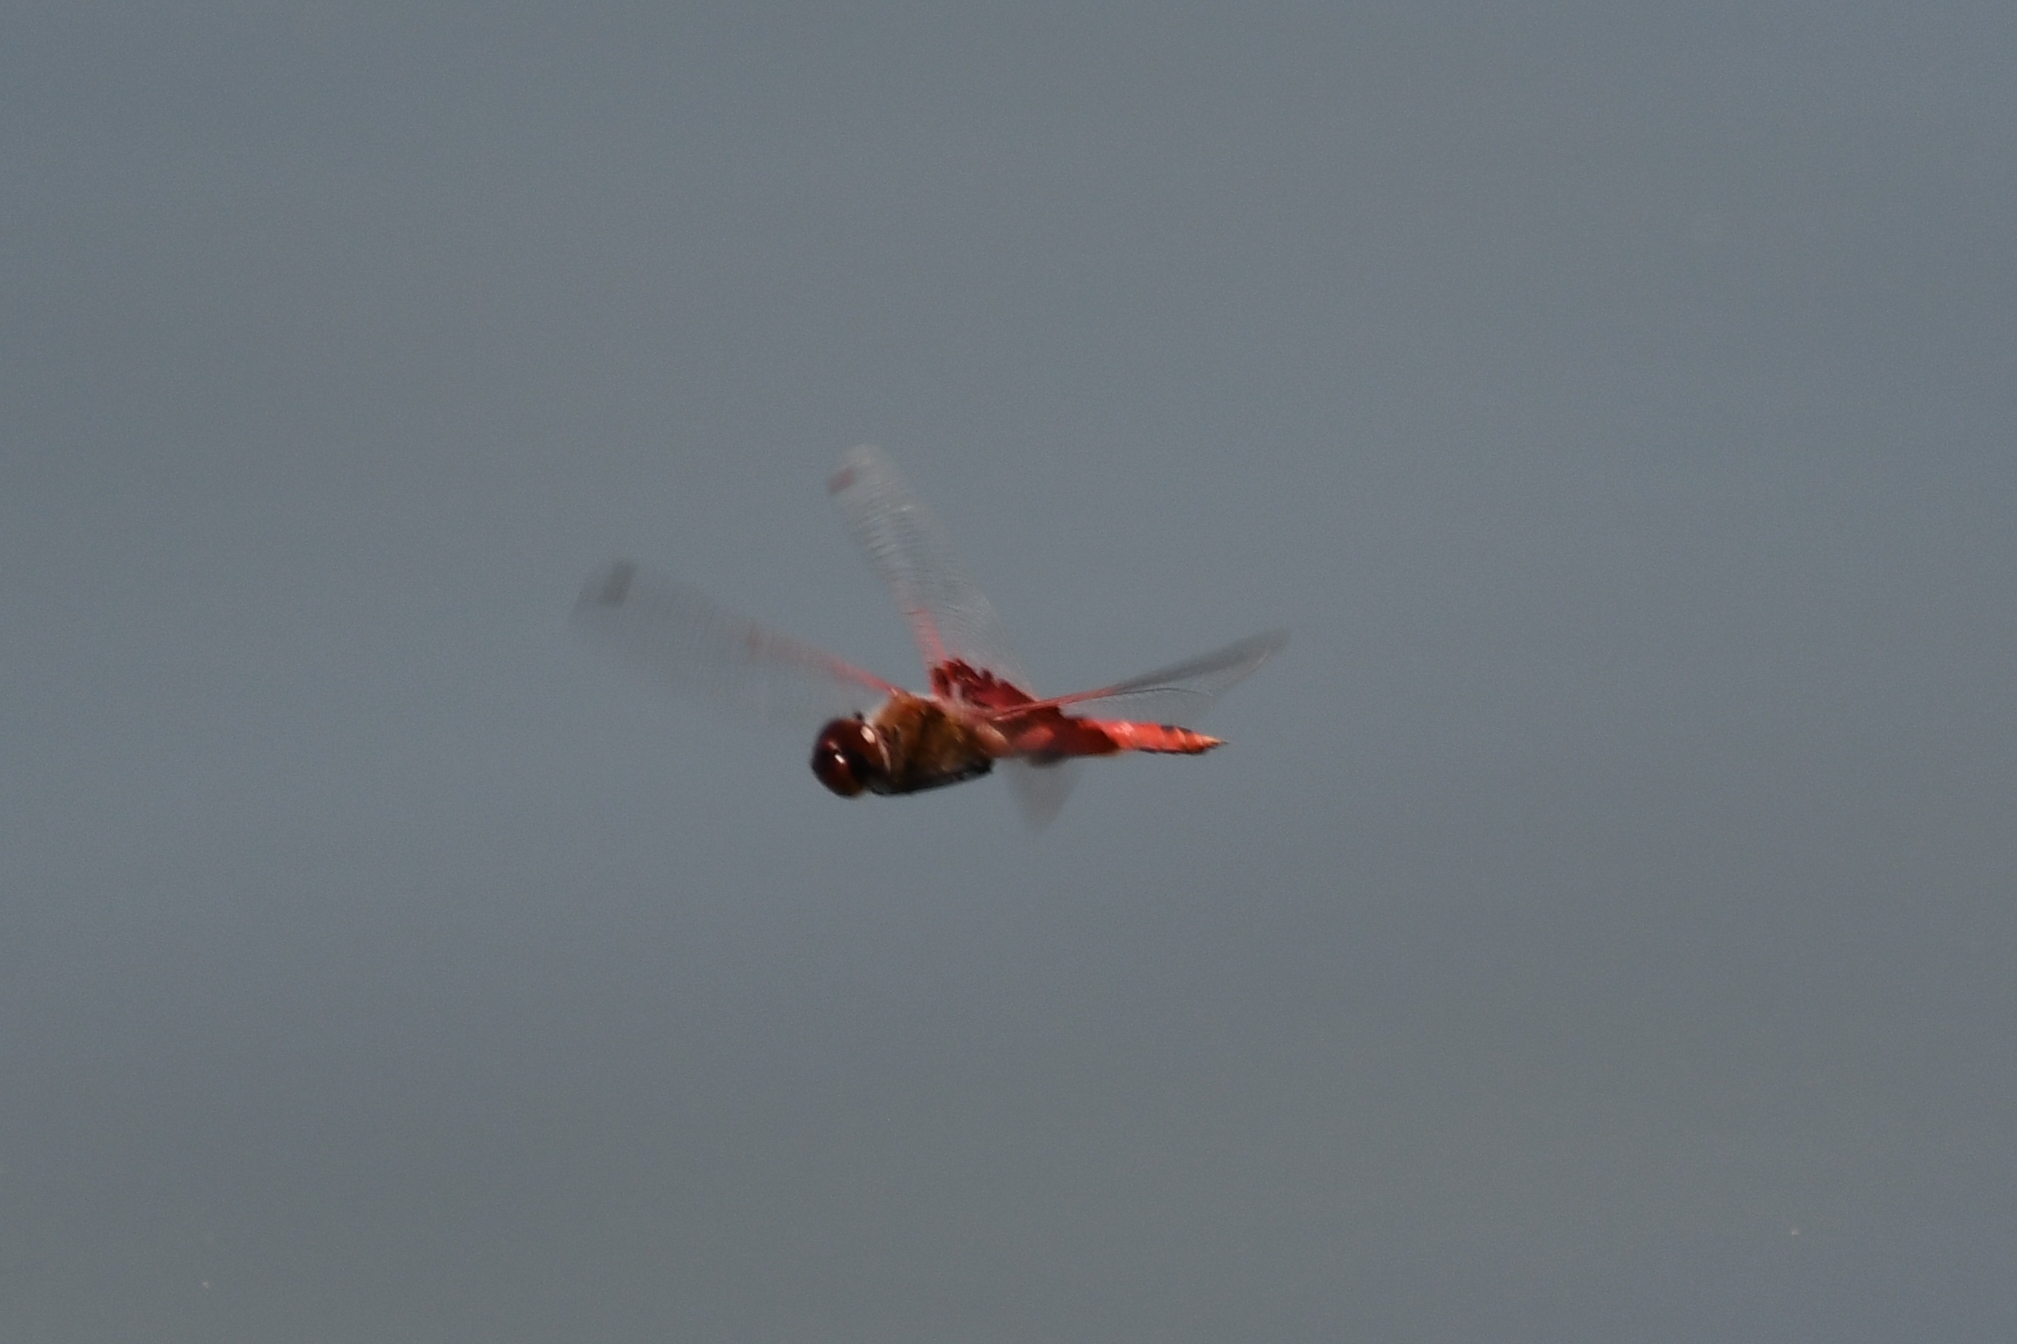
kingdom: Animalia
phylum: Arthropoda
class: Insecta
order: Odonata
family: Libellulidae
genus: Tramea
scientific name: Tramea onusta
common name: Red saddlebags
